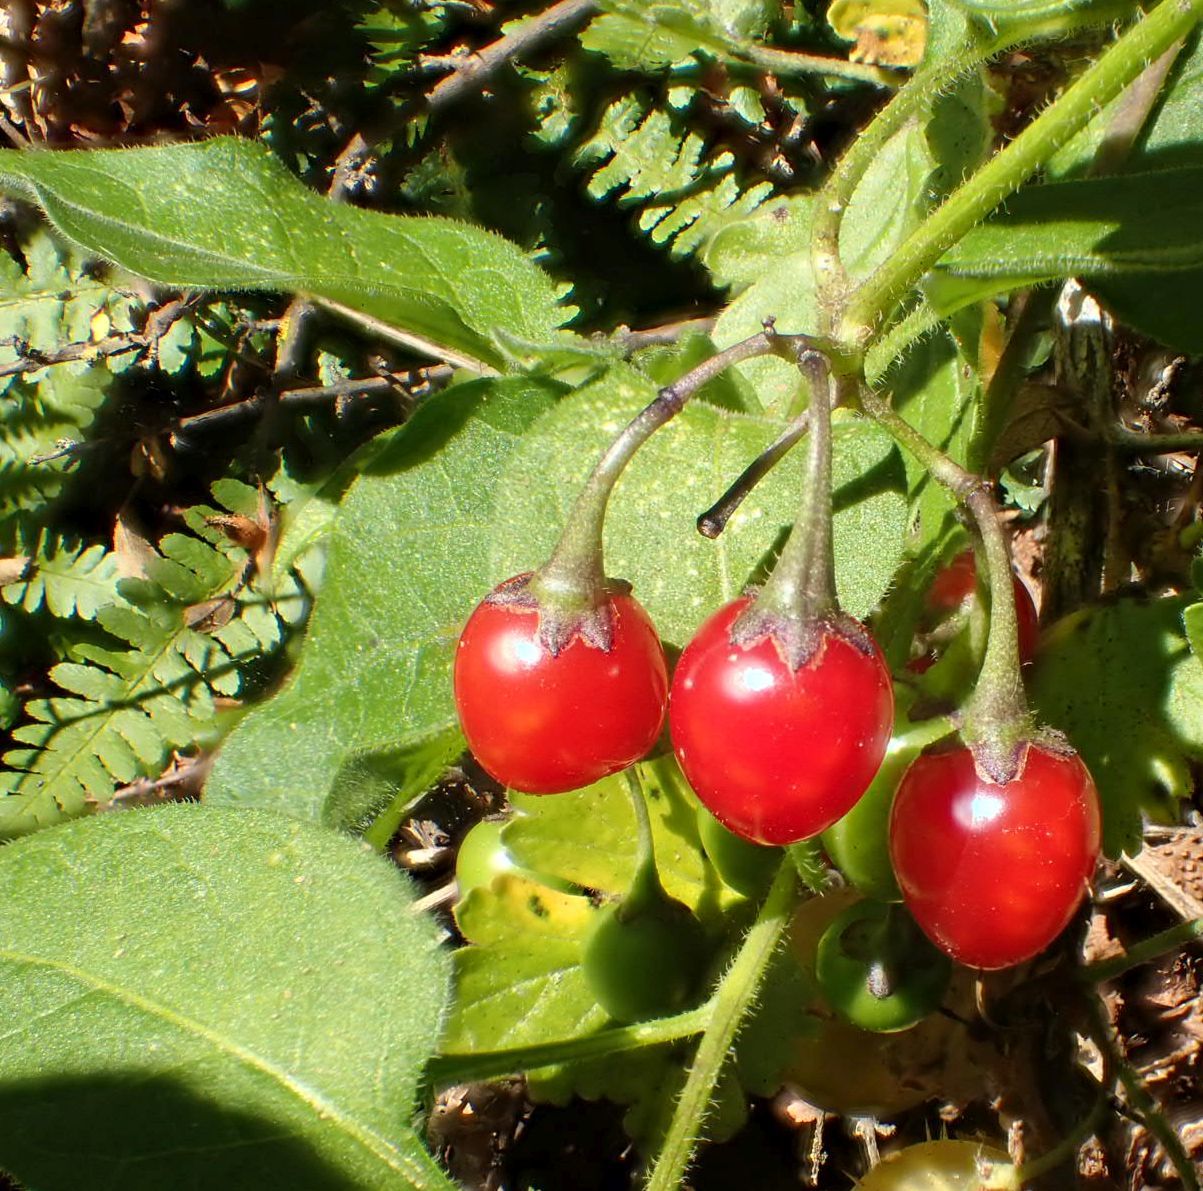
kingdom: Plantae
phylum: Tracheophyta
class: Magnoliopsida
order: Solanales
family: Solanaceae
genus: Solanum
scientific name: Solanum dulcamara
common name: Climbing nightshade
